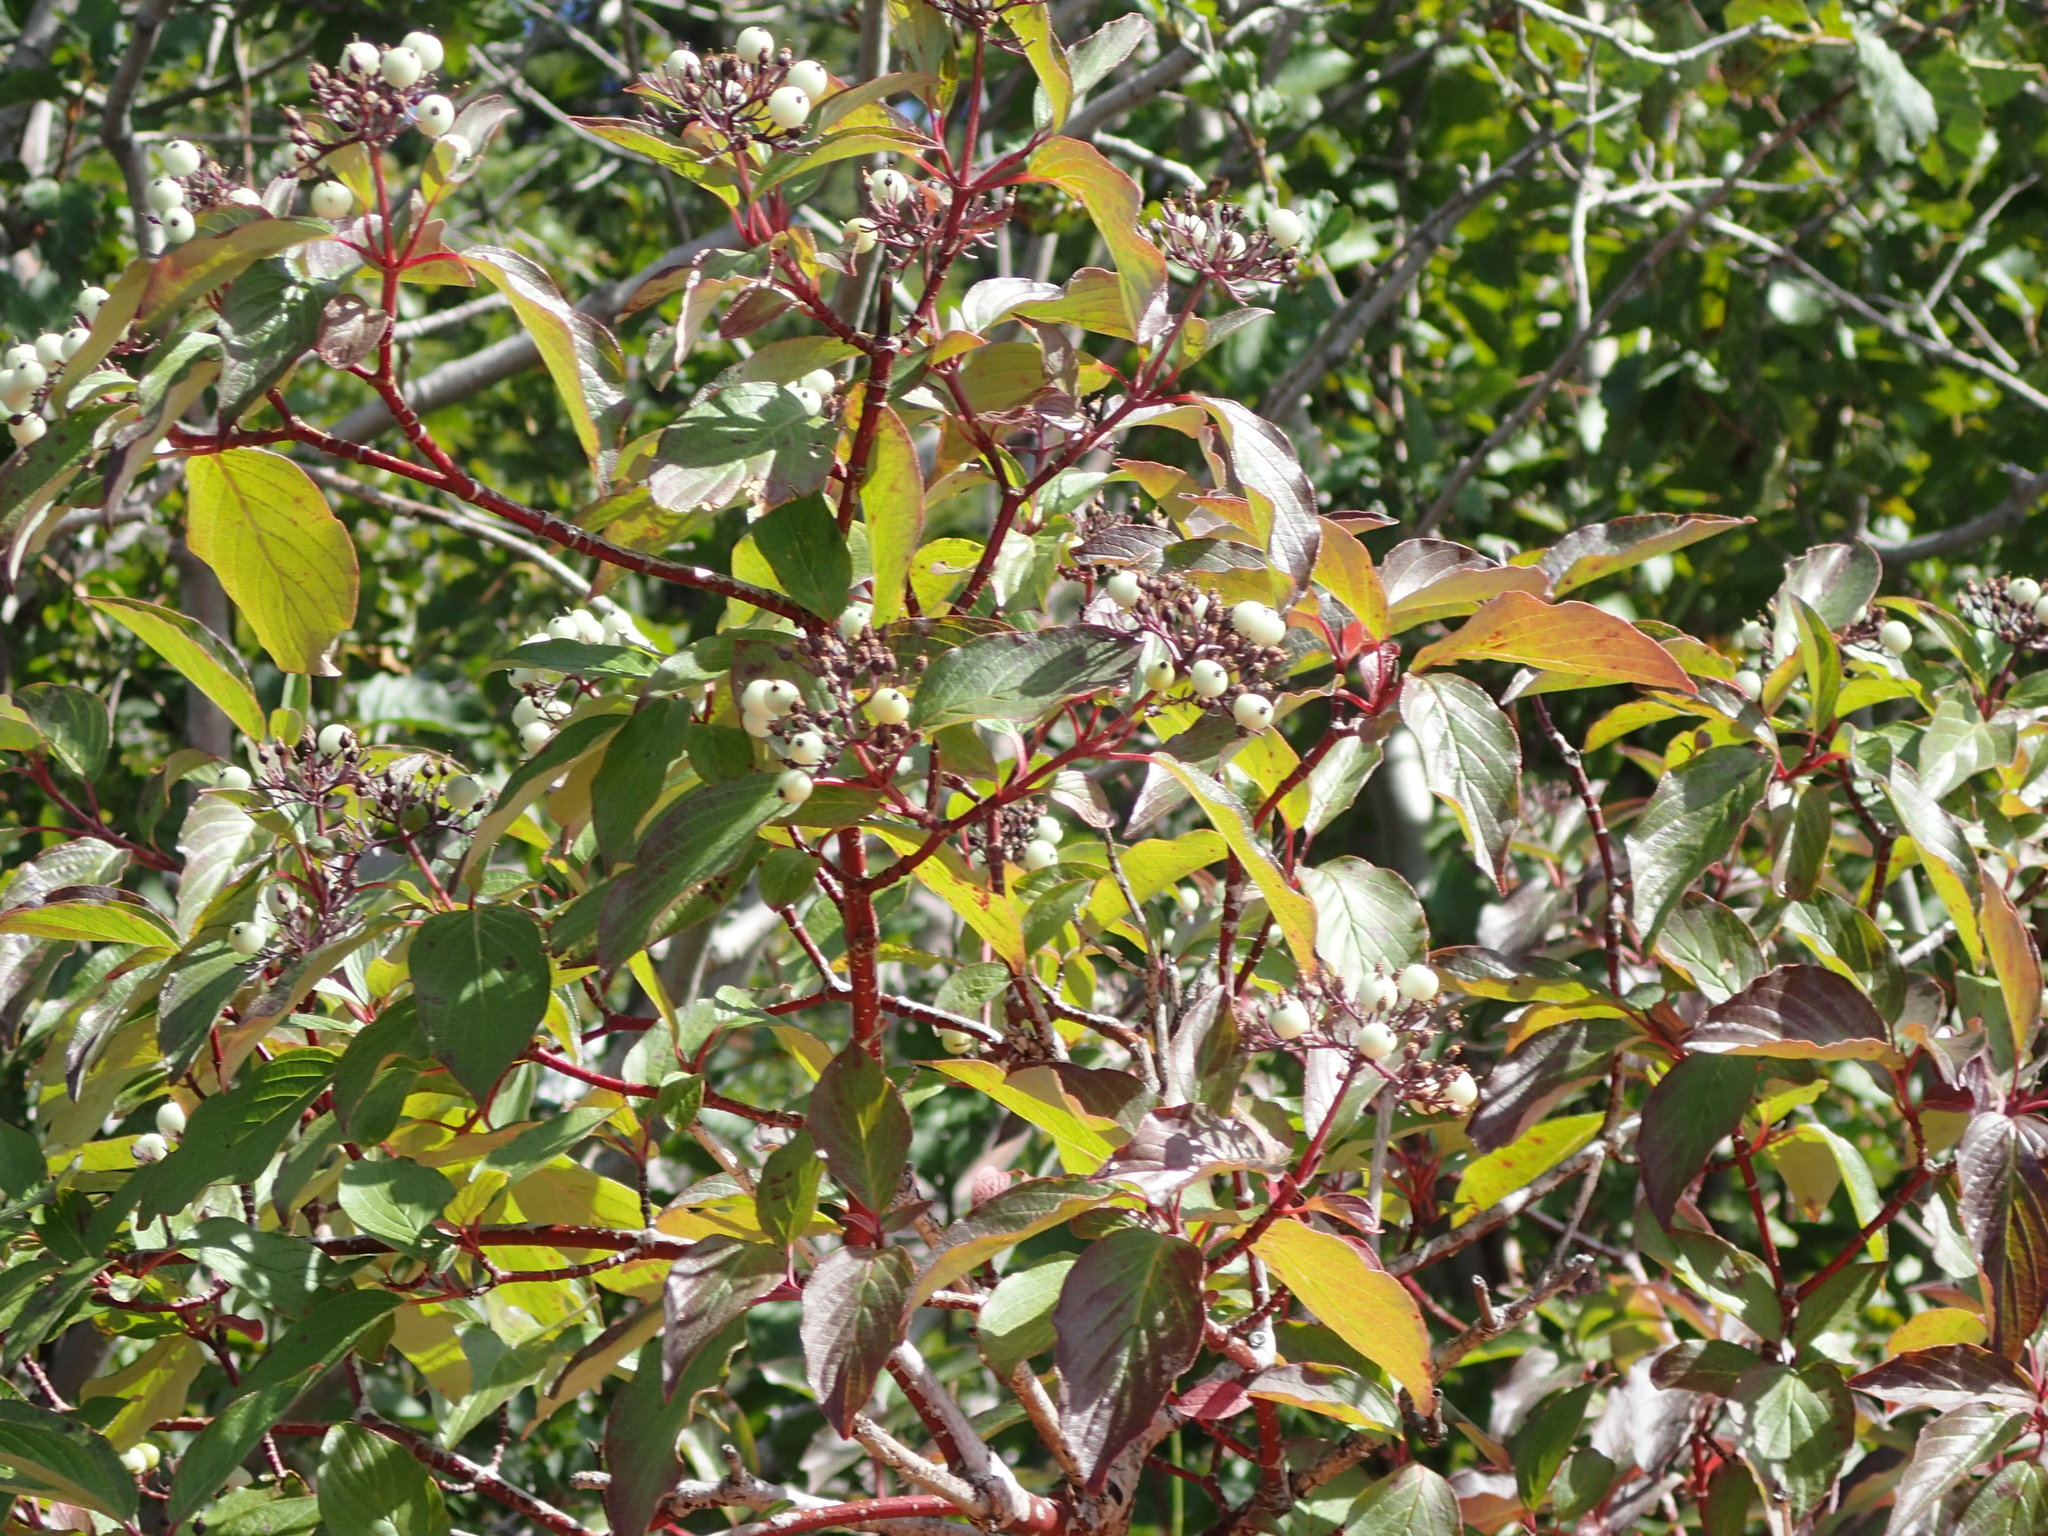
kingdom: Plantae
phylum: Tracheophyta
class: Magnoliopsida
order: Cornales
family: Cornaceae
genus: Cornus
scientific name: Cornus sericea
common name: Red-osier dogwood
